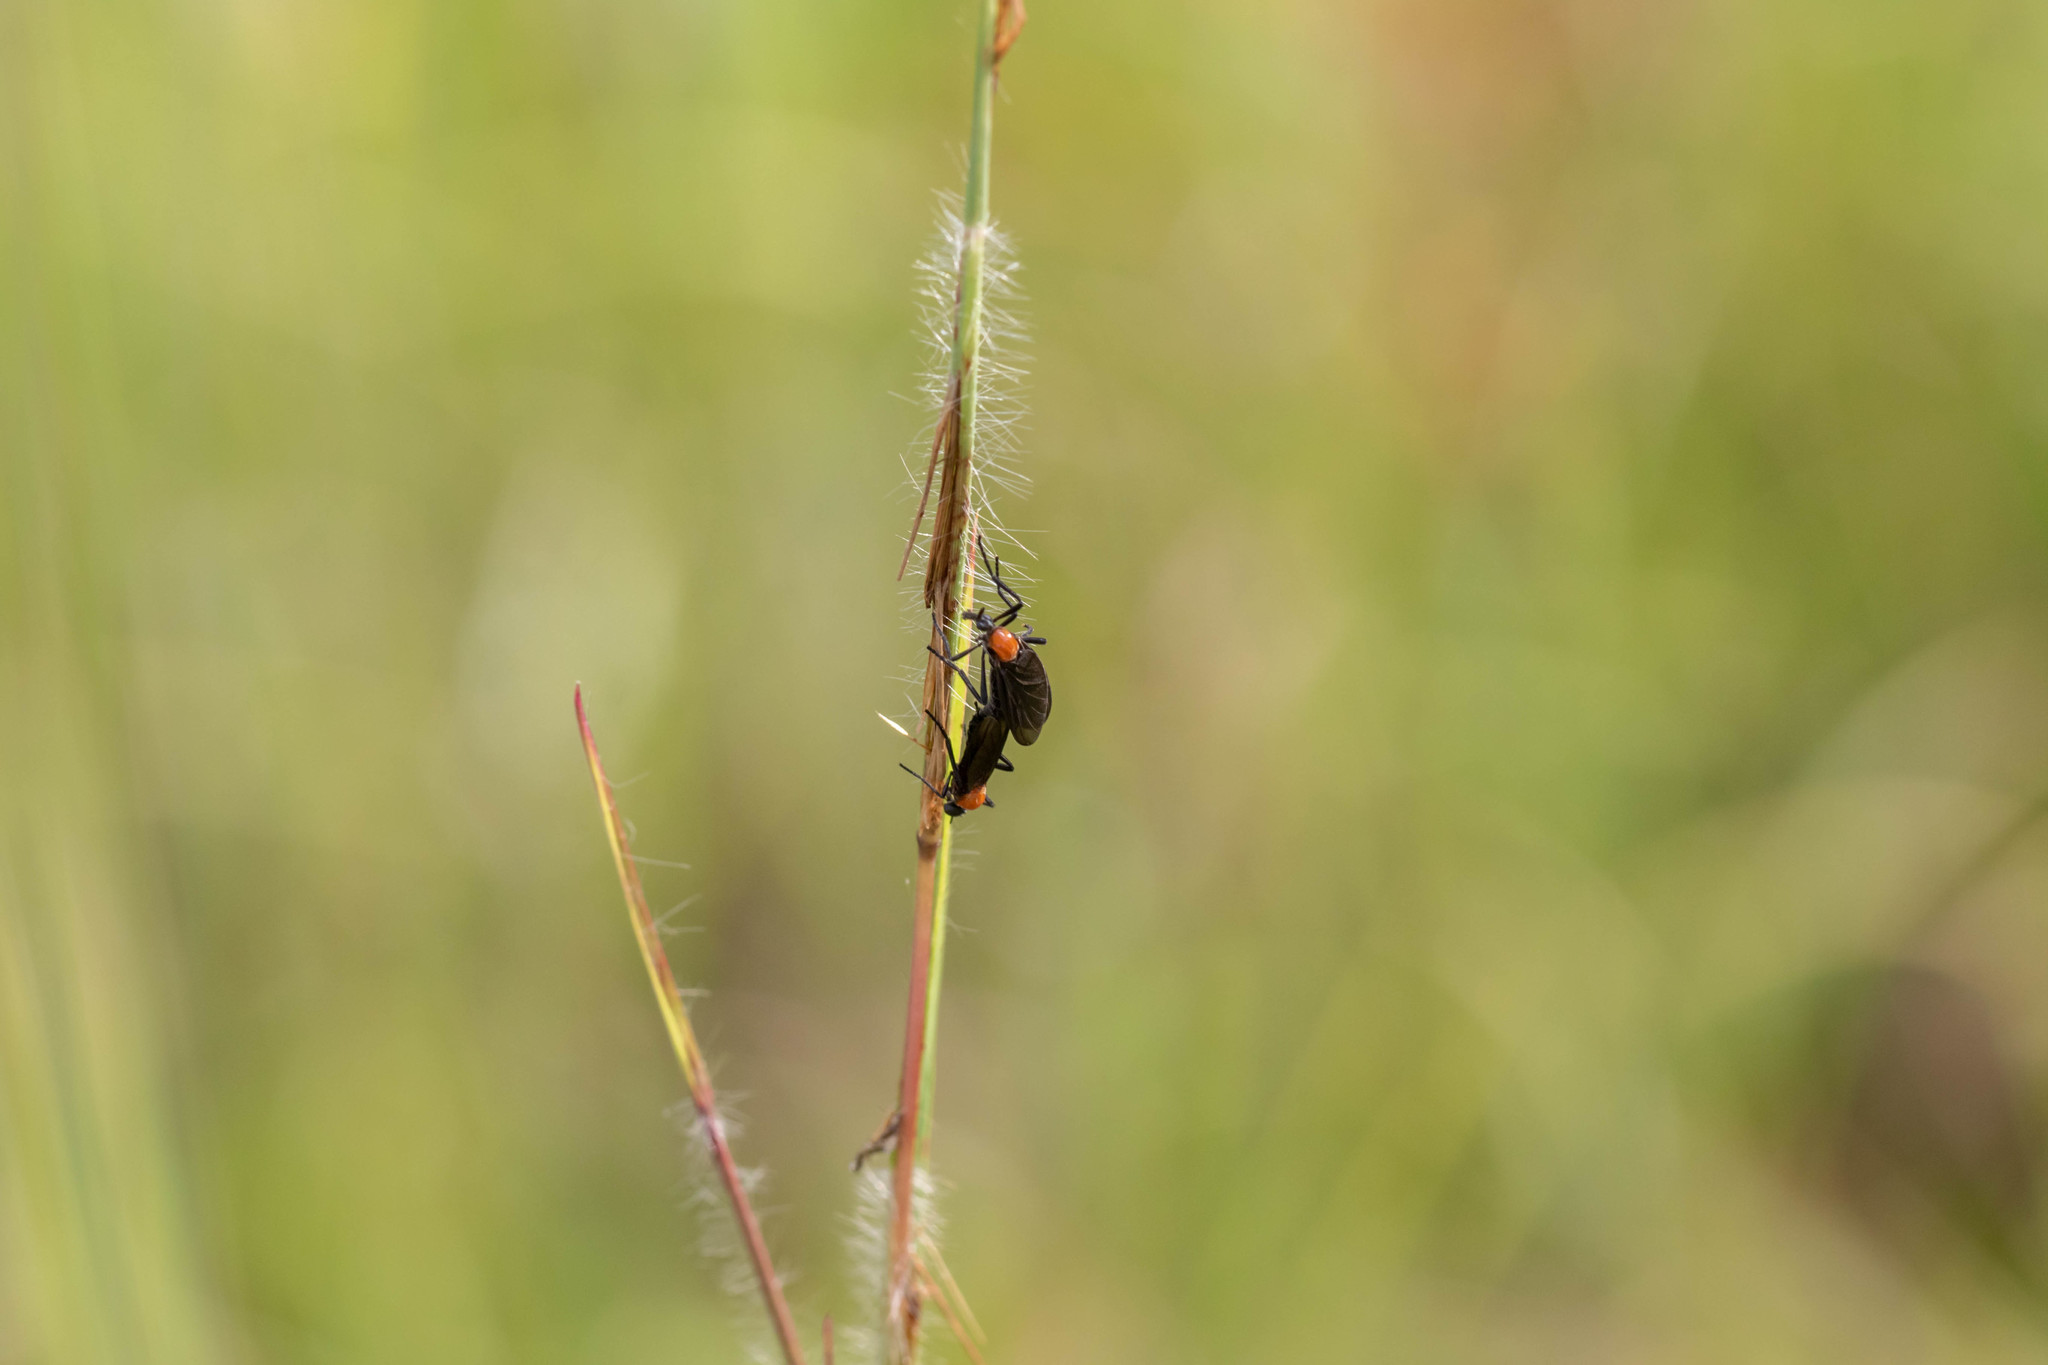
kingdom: Animalia
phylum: Arthropoda
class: Insecta
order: Diptera
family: Bibionidae
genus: Plecia
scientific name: Plecia nearctica
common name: March fly
